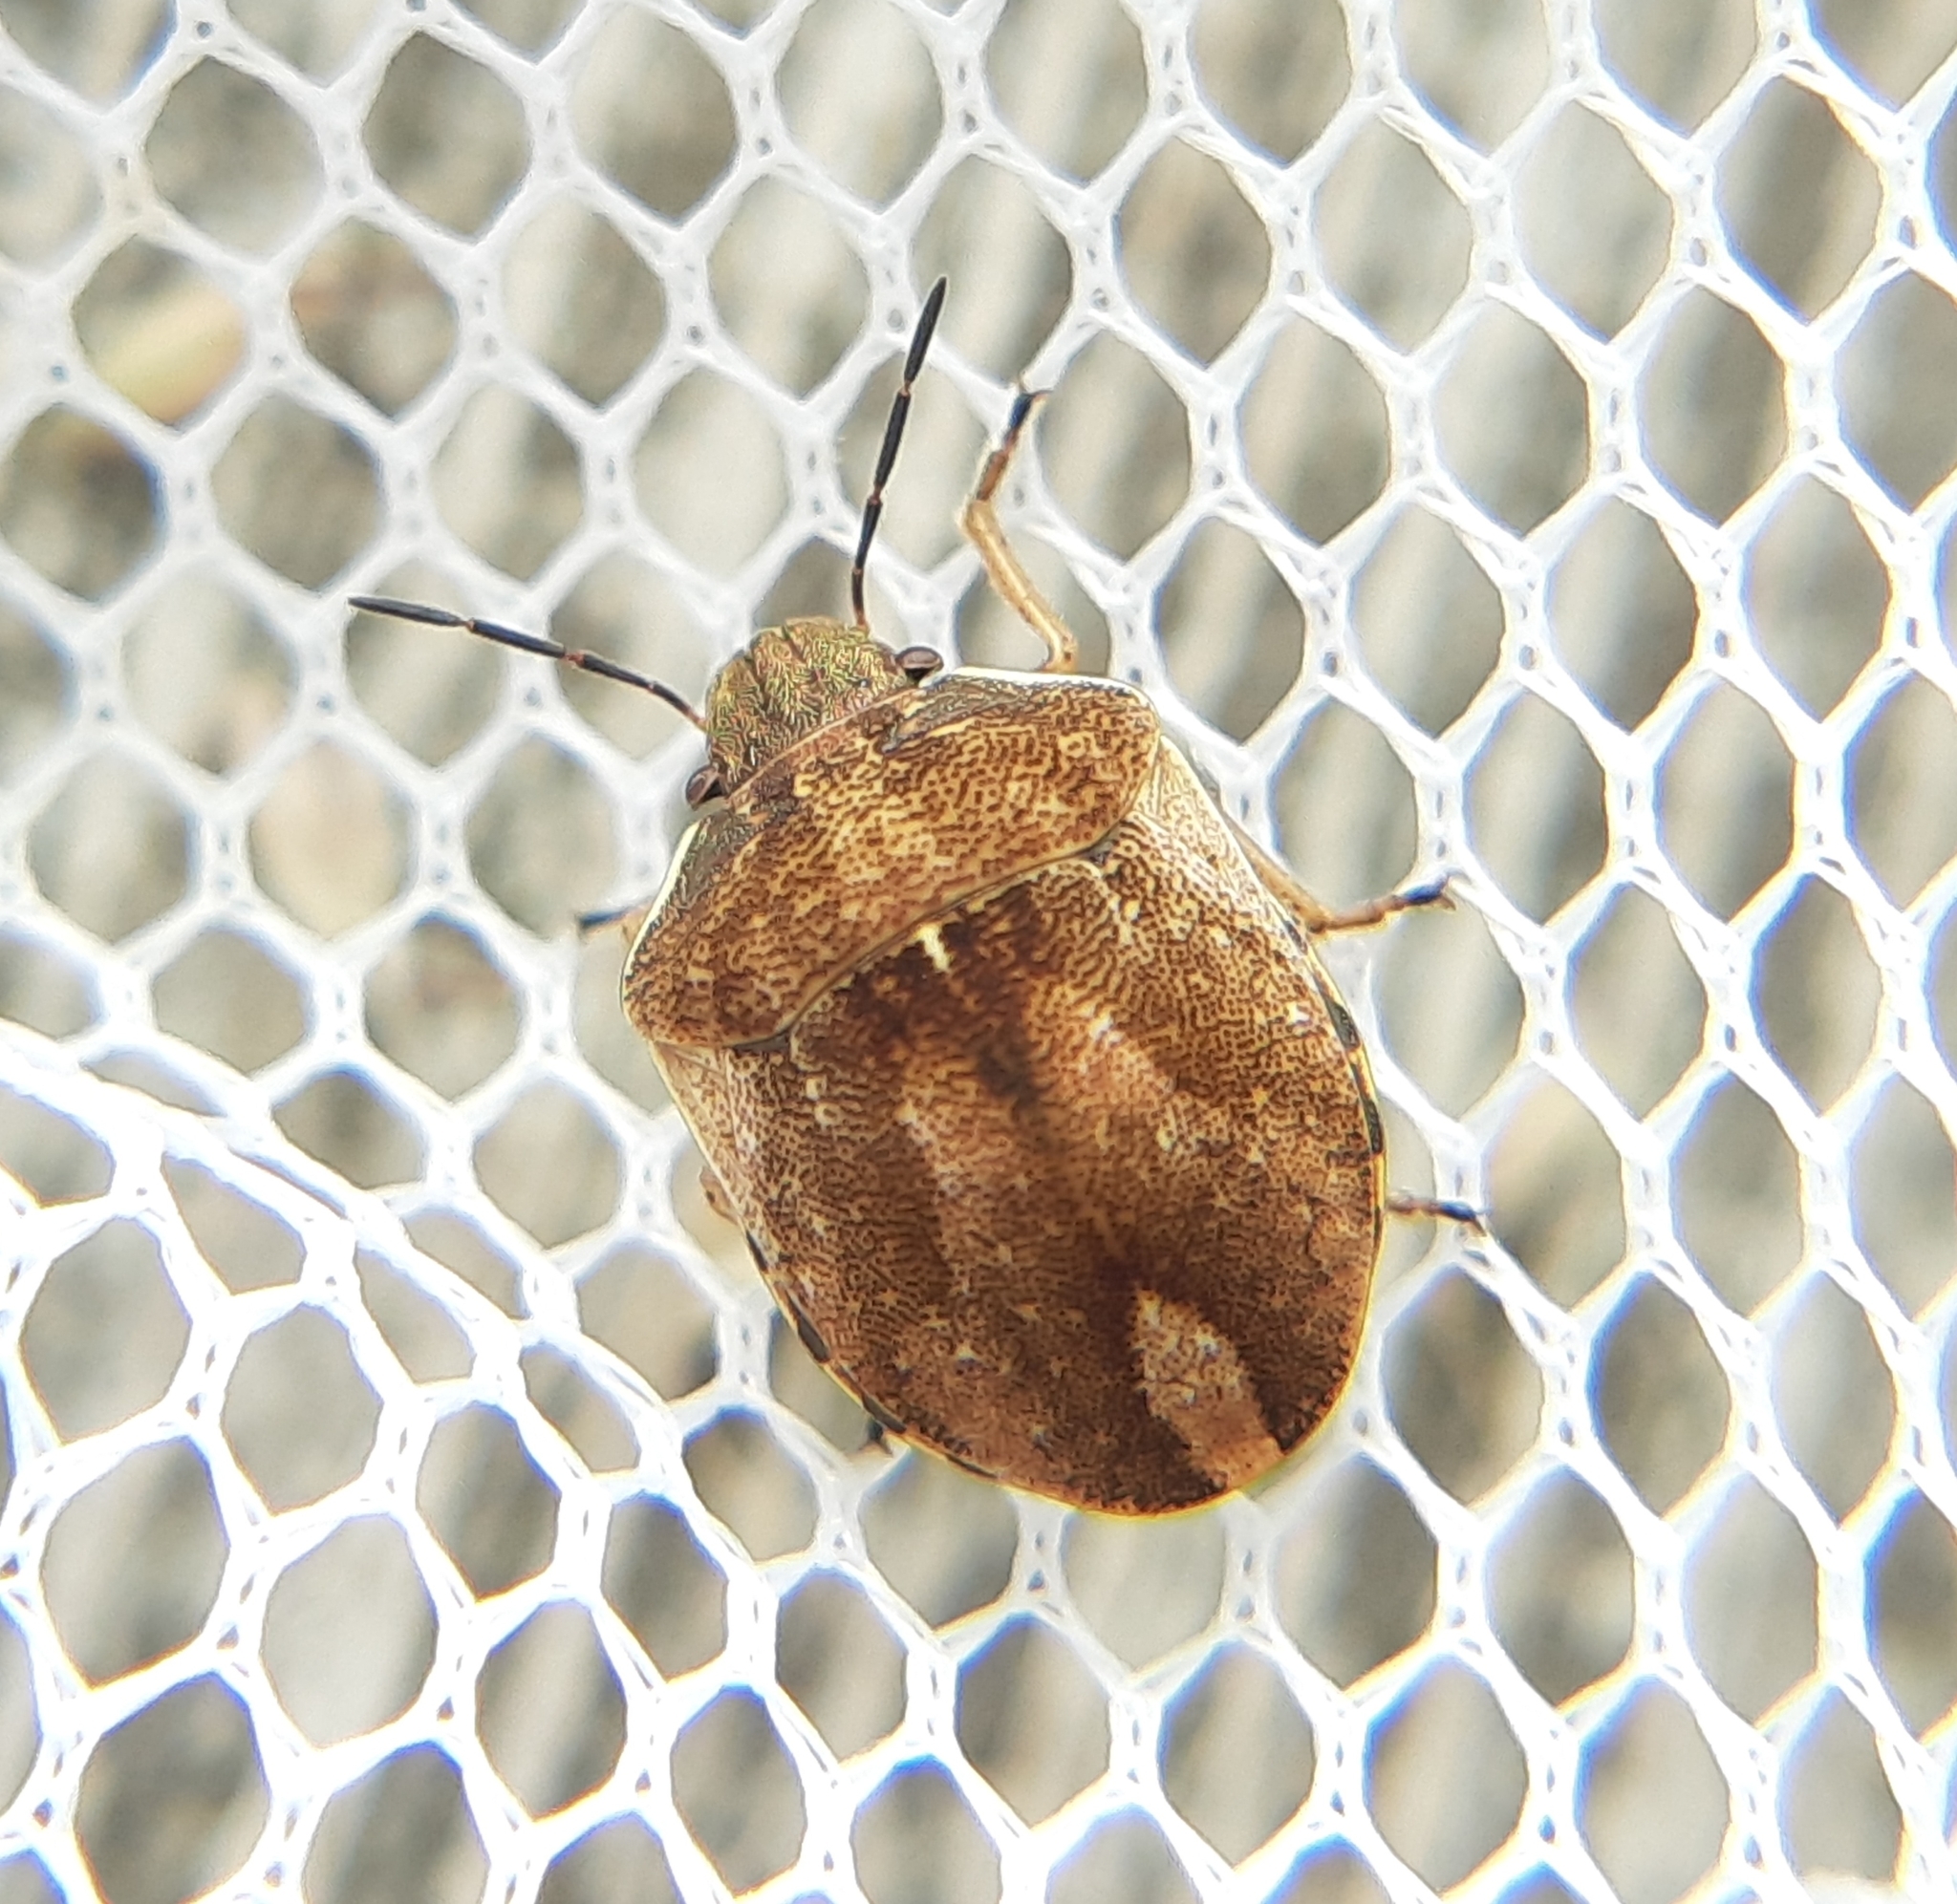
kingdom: Animalia
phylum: Arthropoda
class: Insecta
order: Hemiptera
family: Scutelleridae
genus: Homaemus
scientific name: Homaemus aeneifrons
